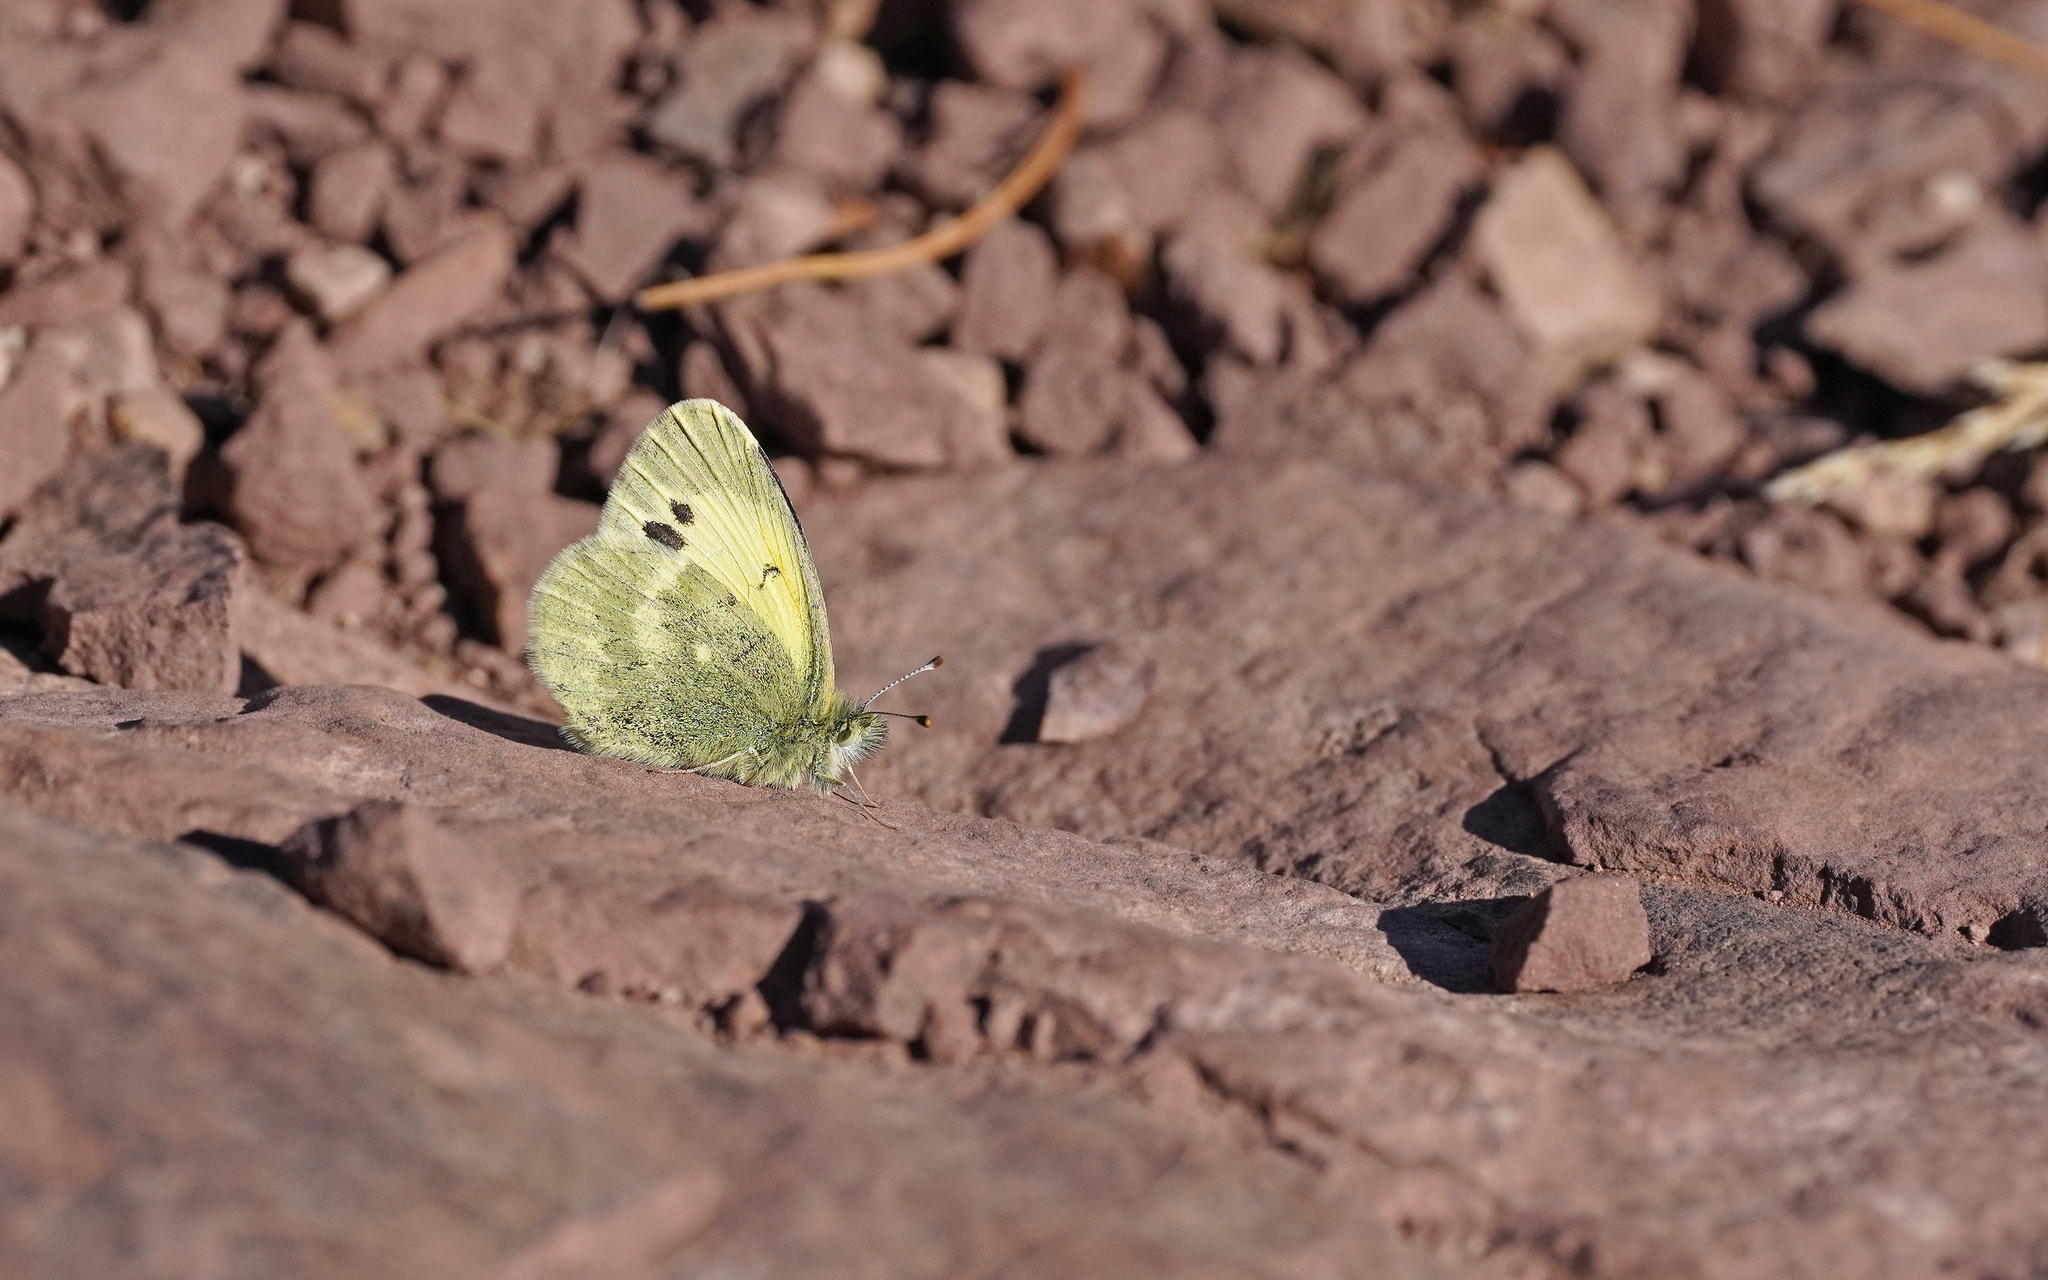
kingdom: Animalia
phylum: Arthropoda
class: Insecta
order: Lepidoptera
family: Pieridae
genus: Nathalis
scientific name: Nathalis iole
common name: Dainty sulphur
